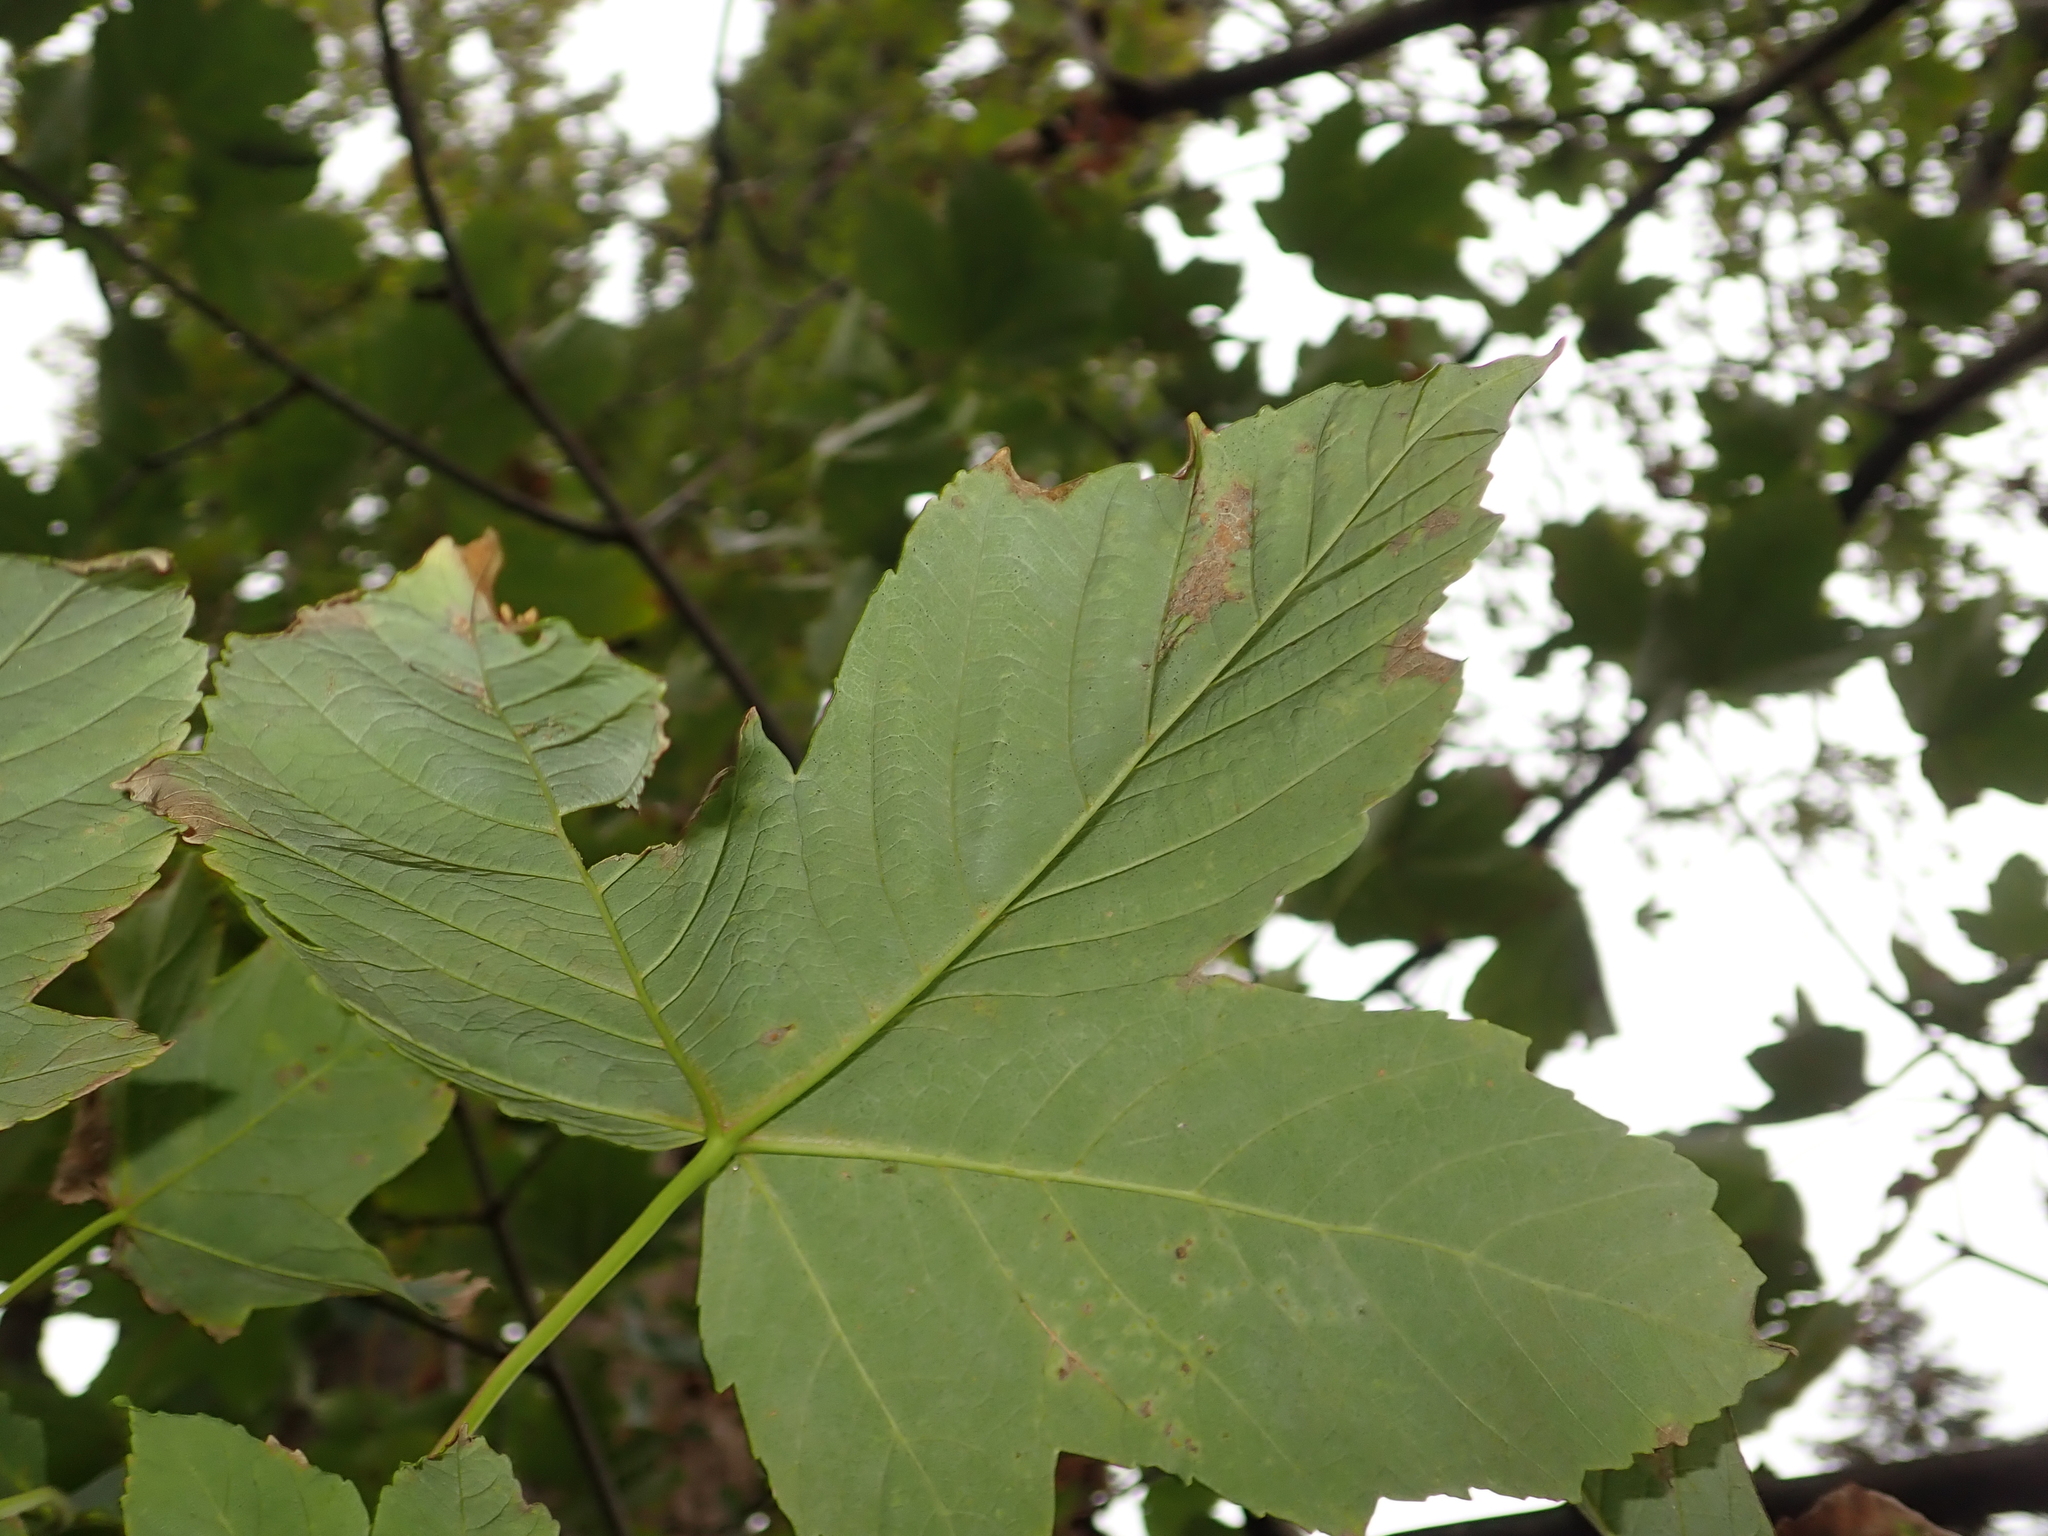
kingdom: Plantae
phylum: Tracheophyta
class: Magnoliopsida
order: Sapindales
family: Sapindaceae
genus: Acer
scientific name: Acer pseudoplatanus
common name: Sycamore
